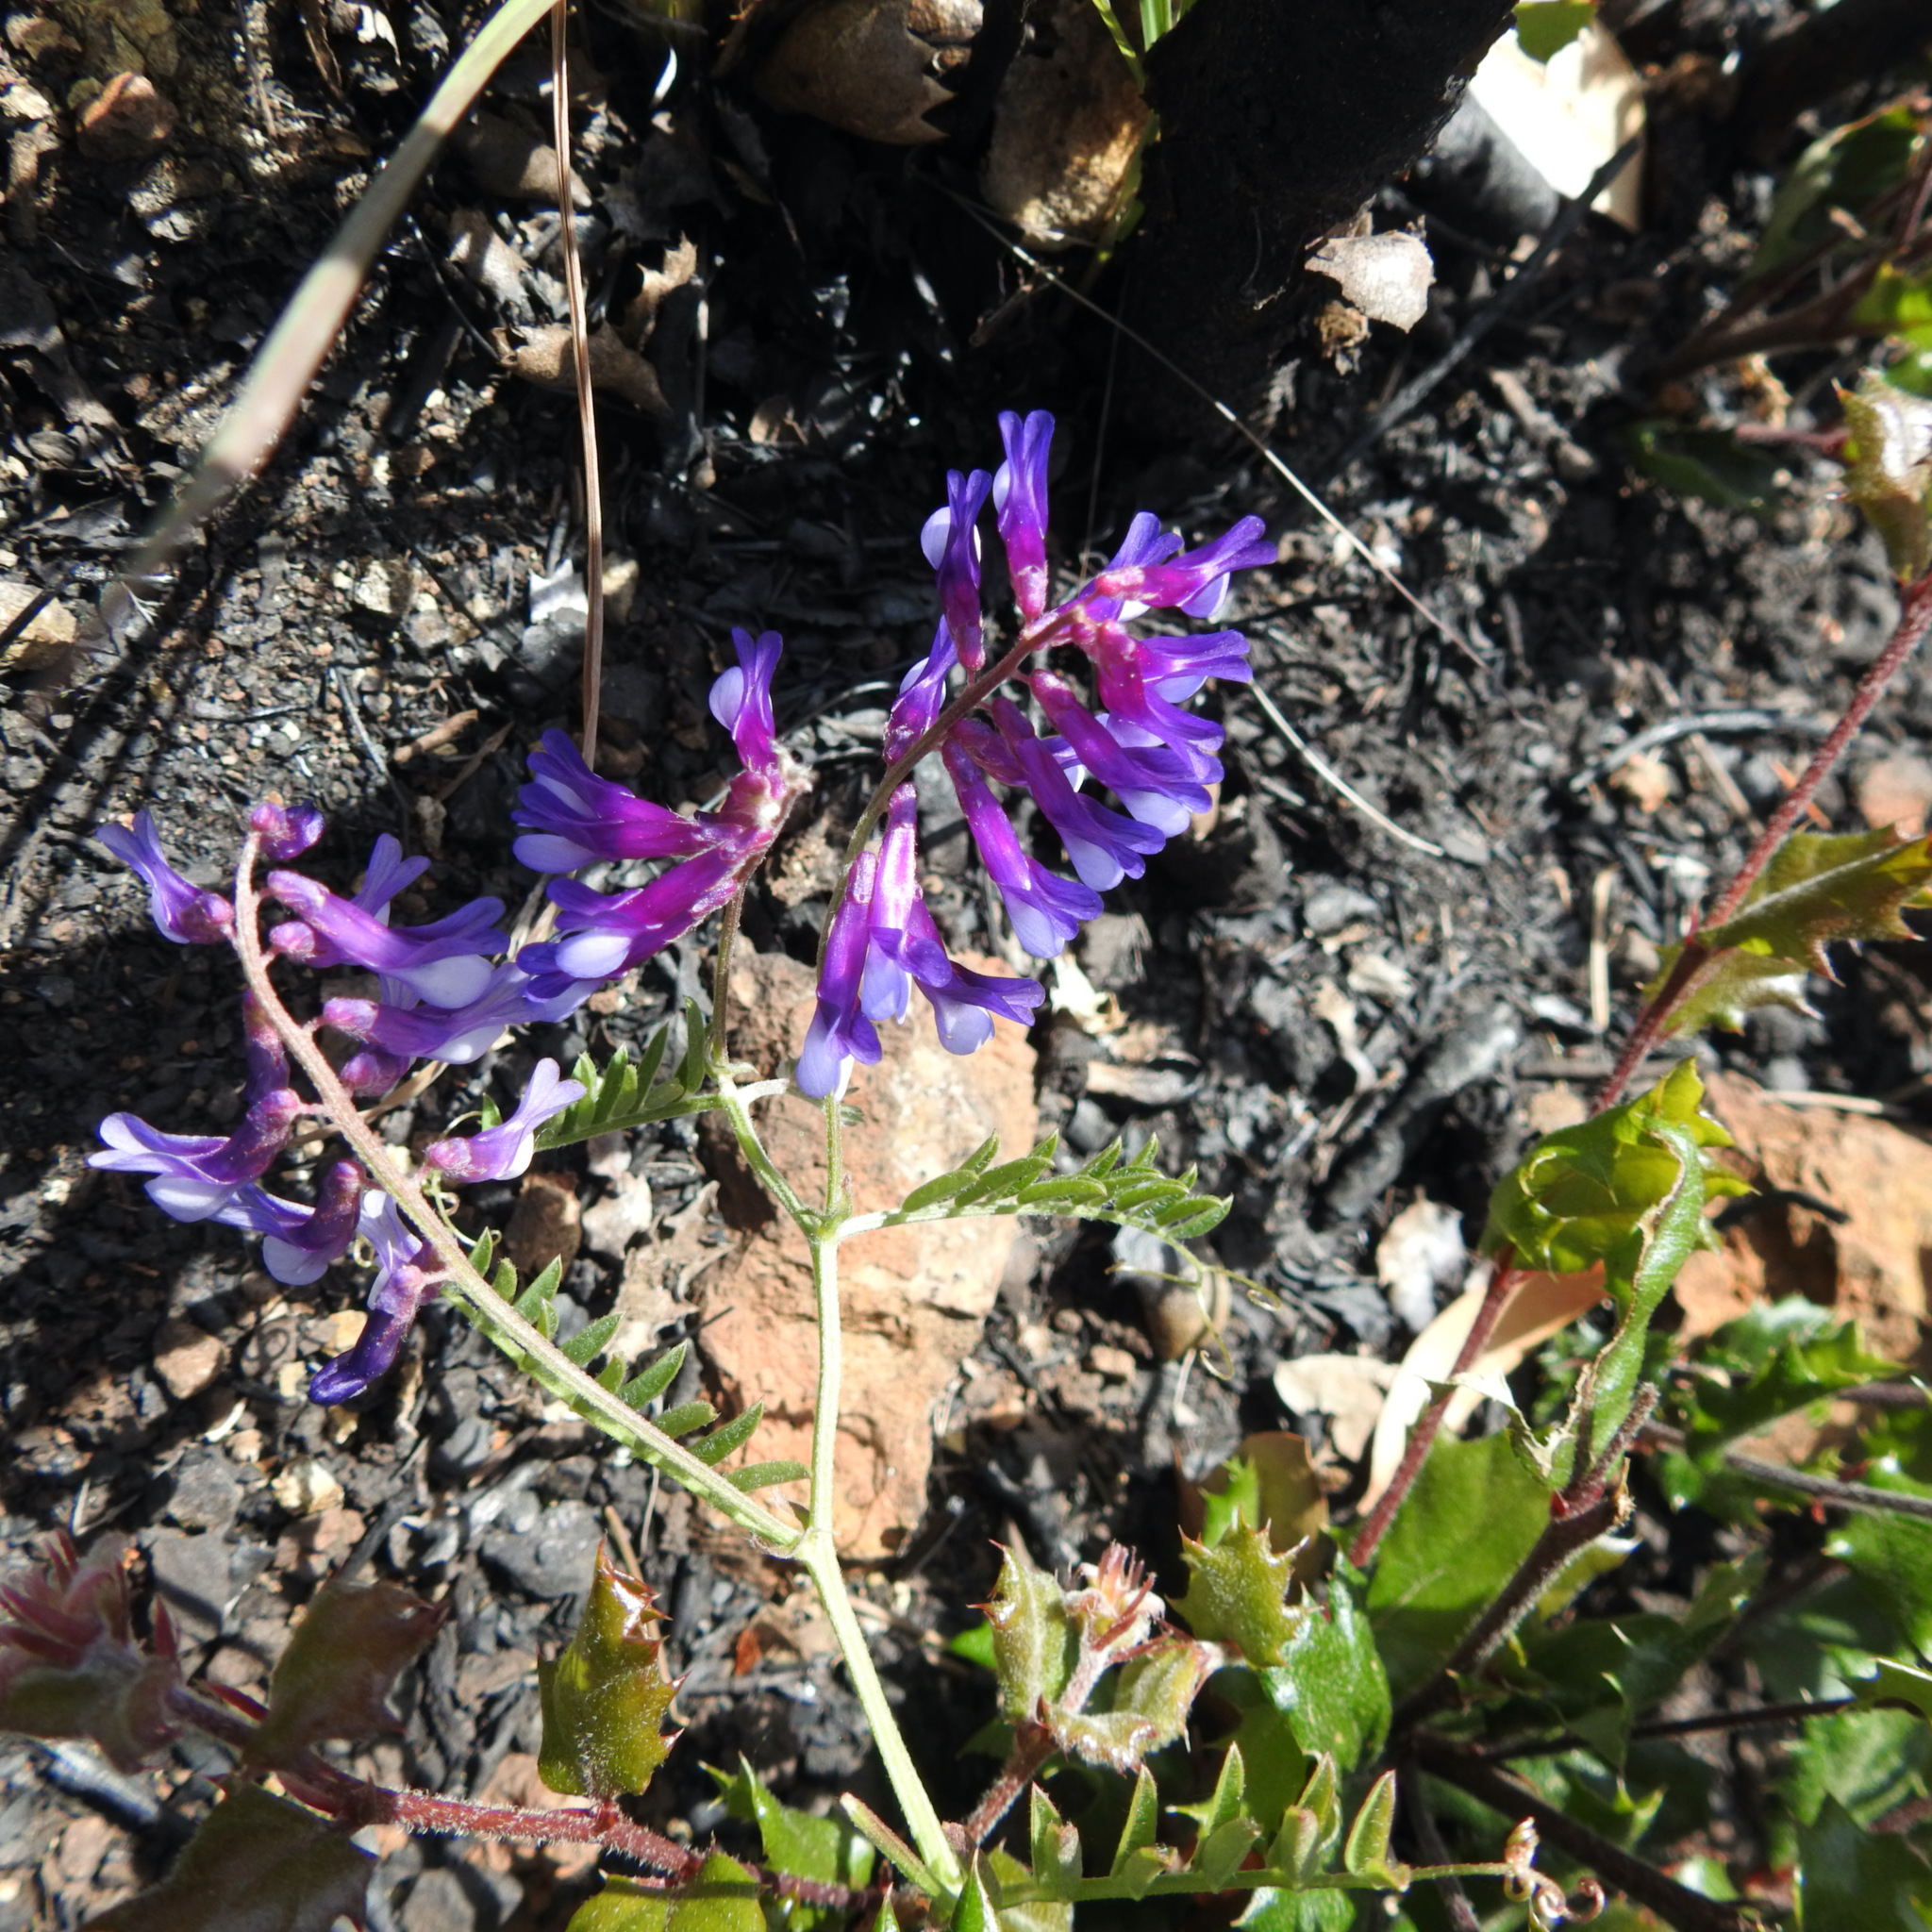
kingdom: Plantae
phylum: Tracheophyta
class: Magnoliopsida
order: Fabales
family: Fabaceae
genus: Vicia
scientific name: Vicia villosa
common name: Fodder vetch
